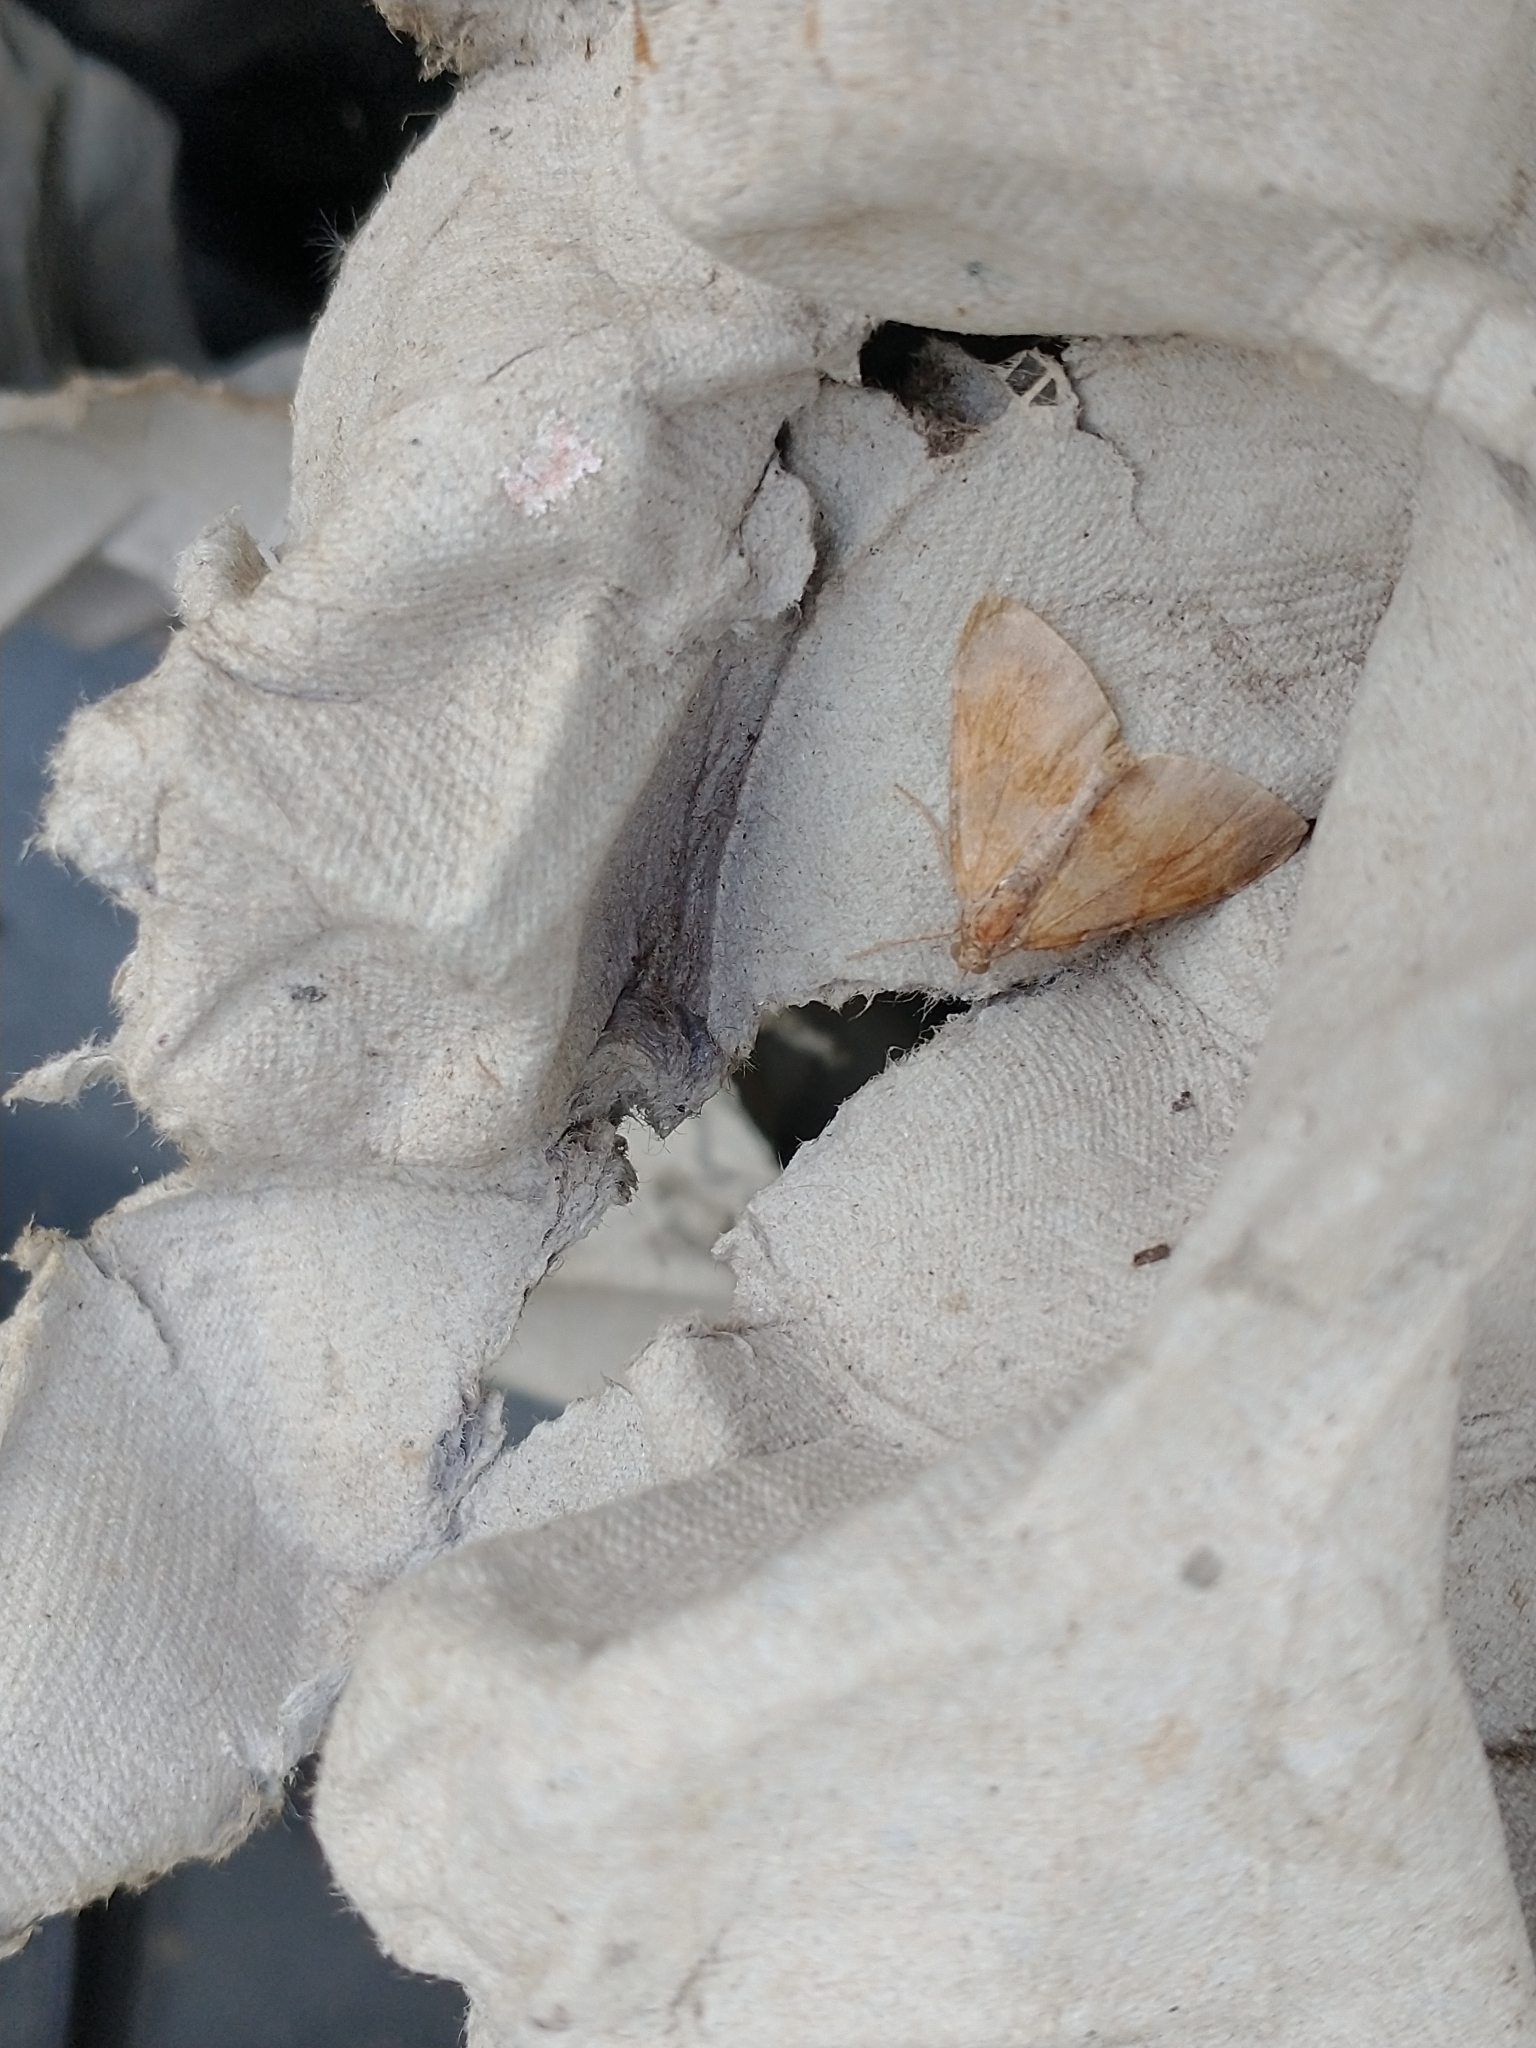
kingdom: Animalia
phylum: Arthropoda
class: Insecta
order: Lepidoptera
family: Geometridae
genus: Pennithera
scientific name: Pennithera firmata
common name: Pine carpet
